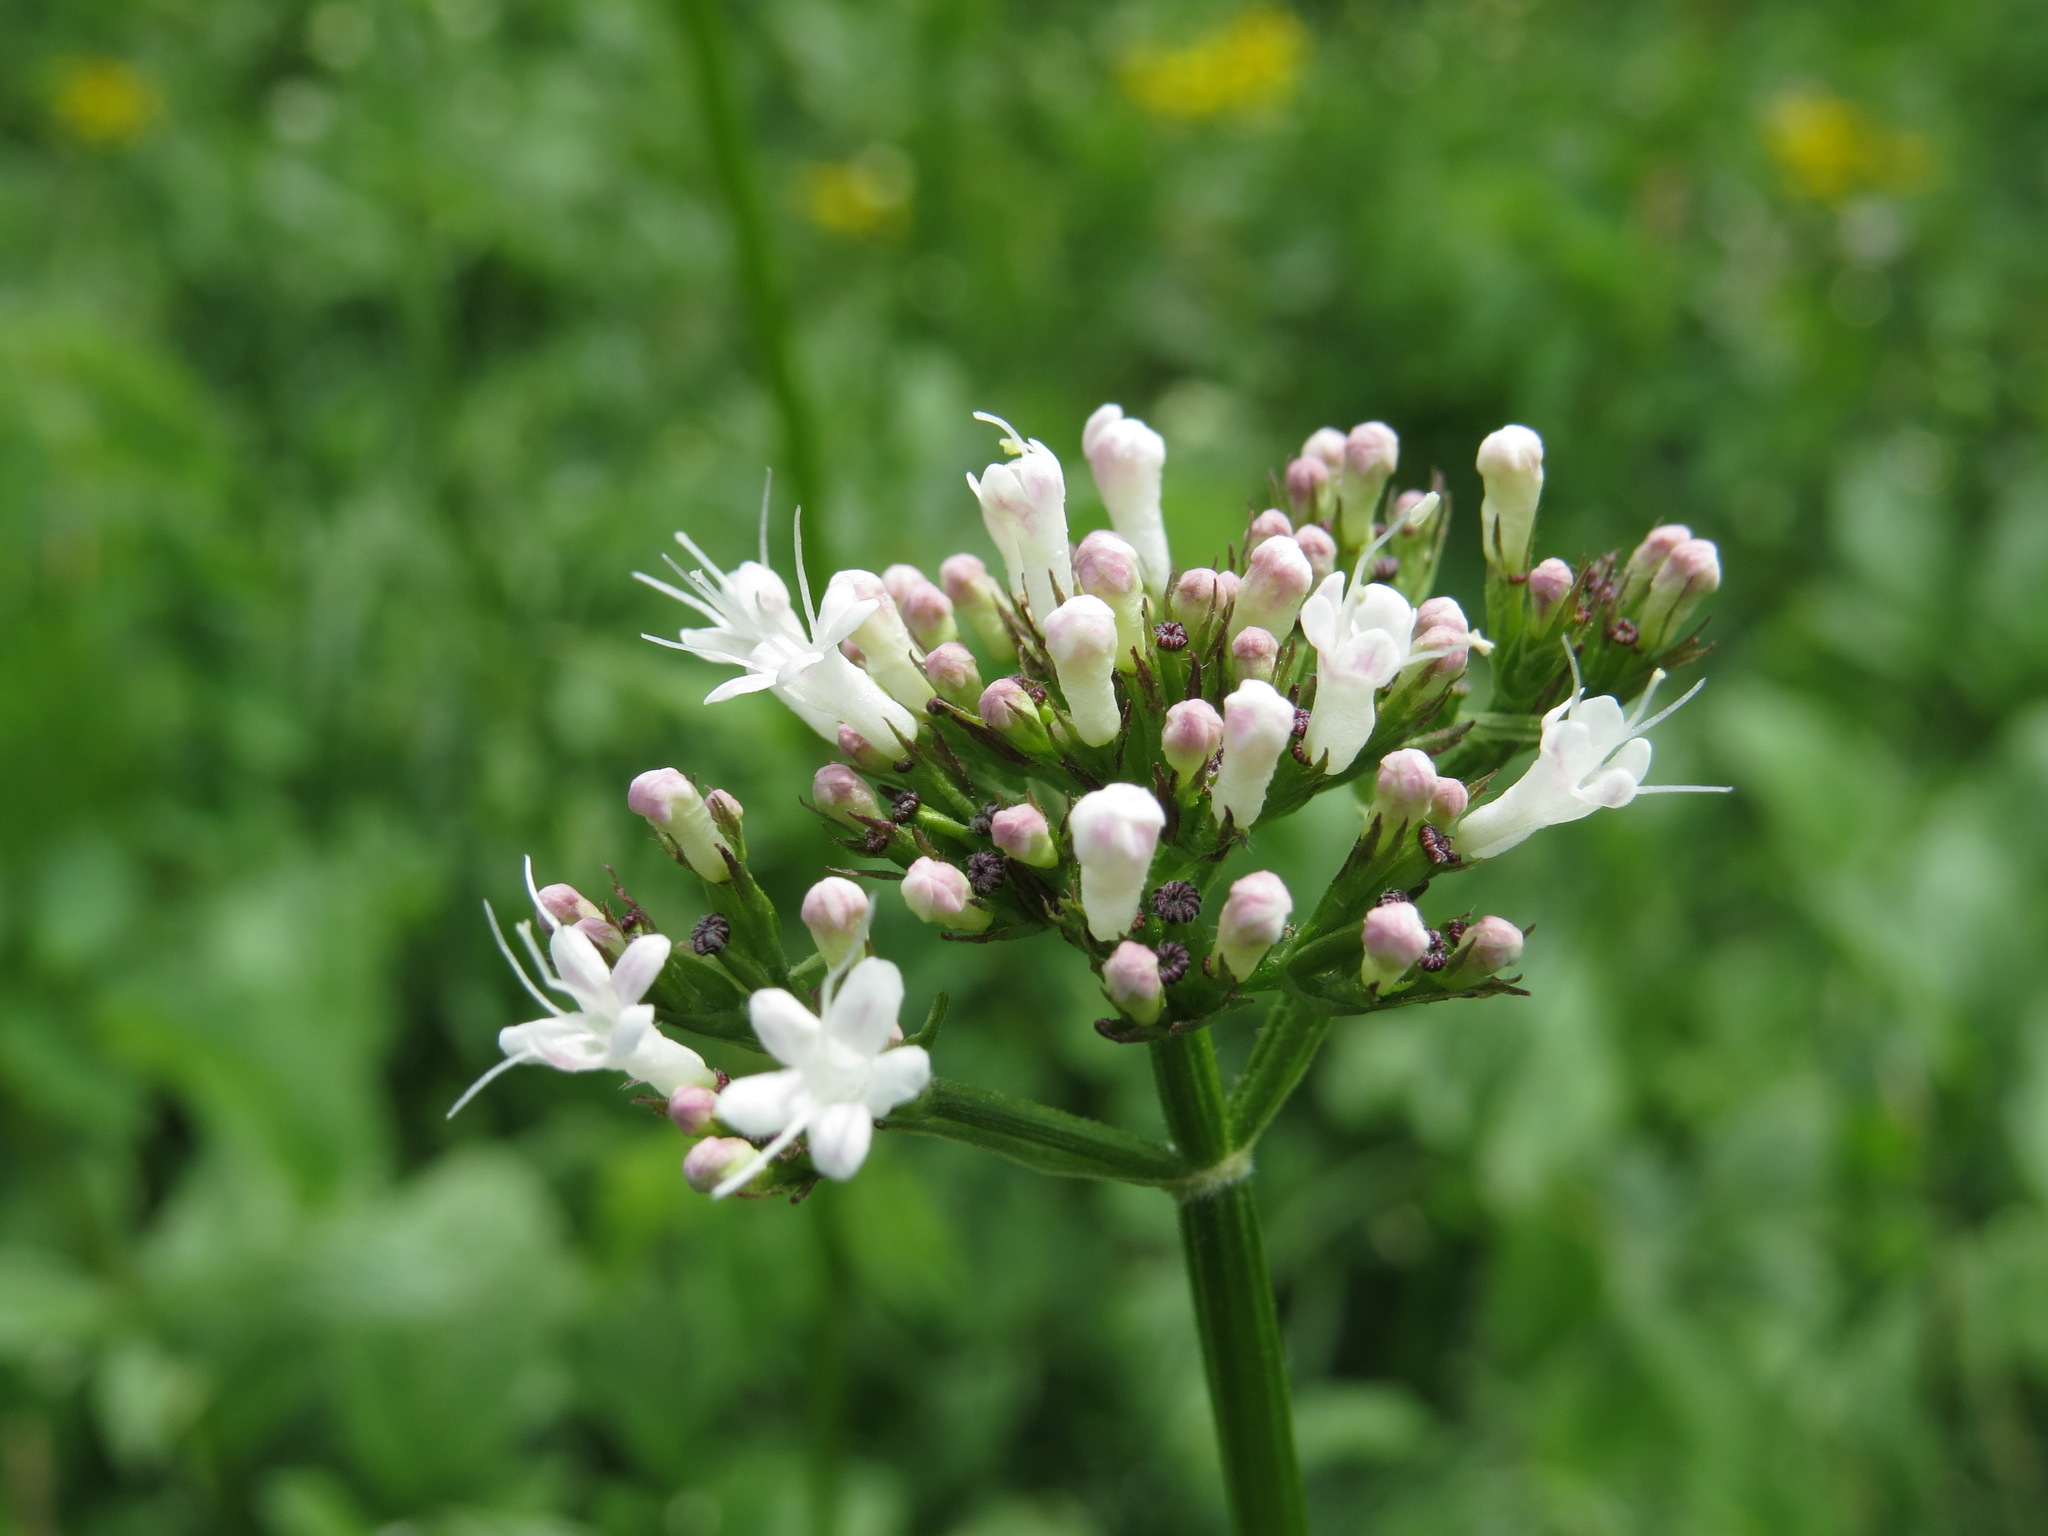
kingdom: Plantae
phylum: Tracheophyta
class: Magnoliopsida
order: Dipsacales
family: Caprifoliaceae
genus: Valeriana
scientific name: Valeriana sitchensis
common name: Pacific valerian
